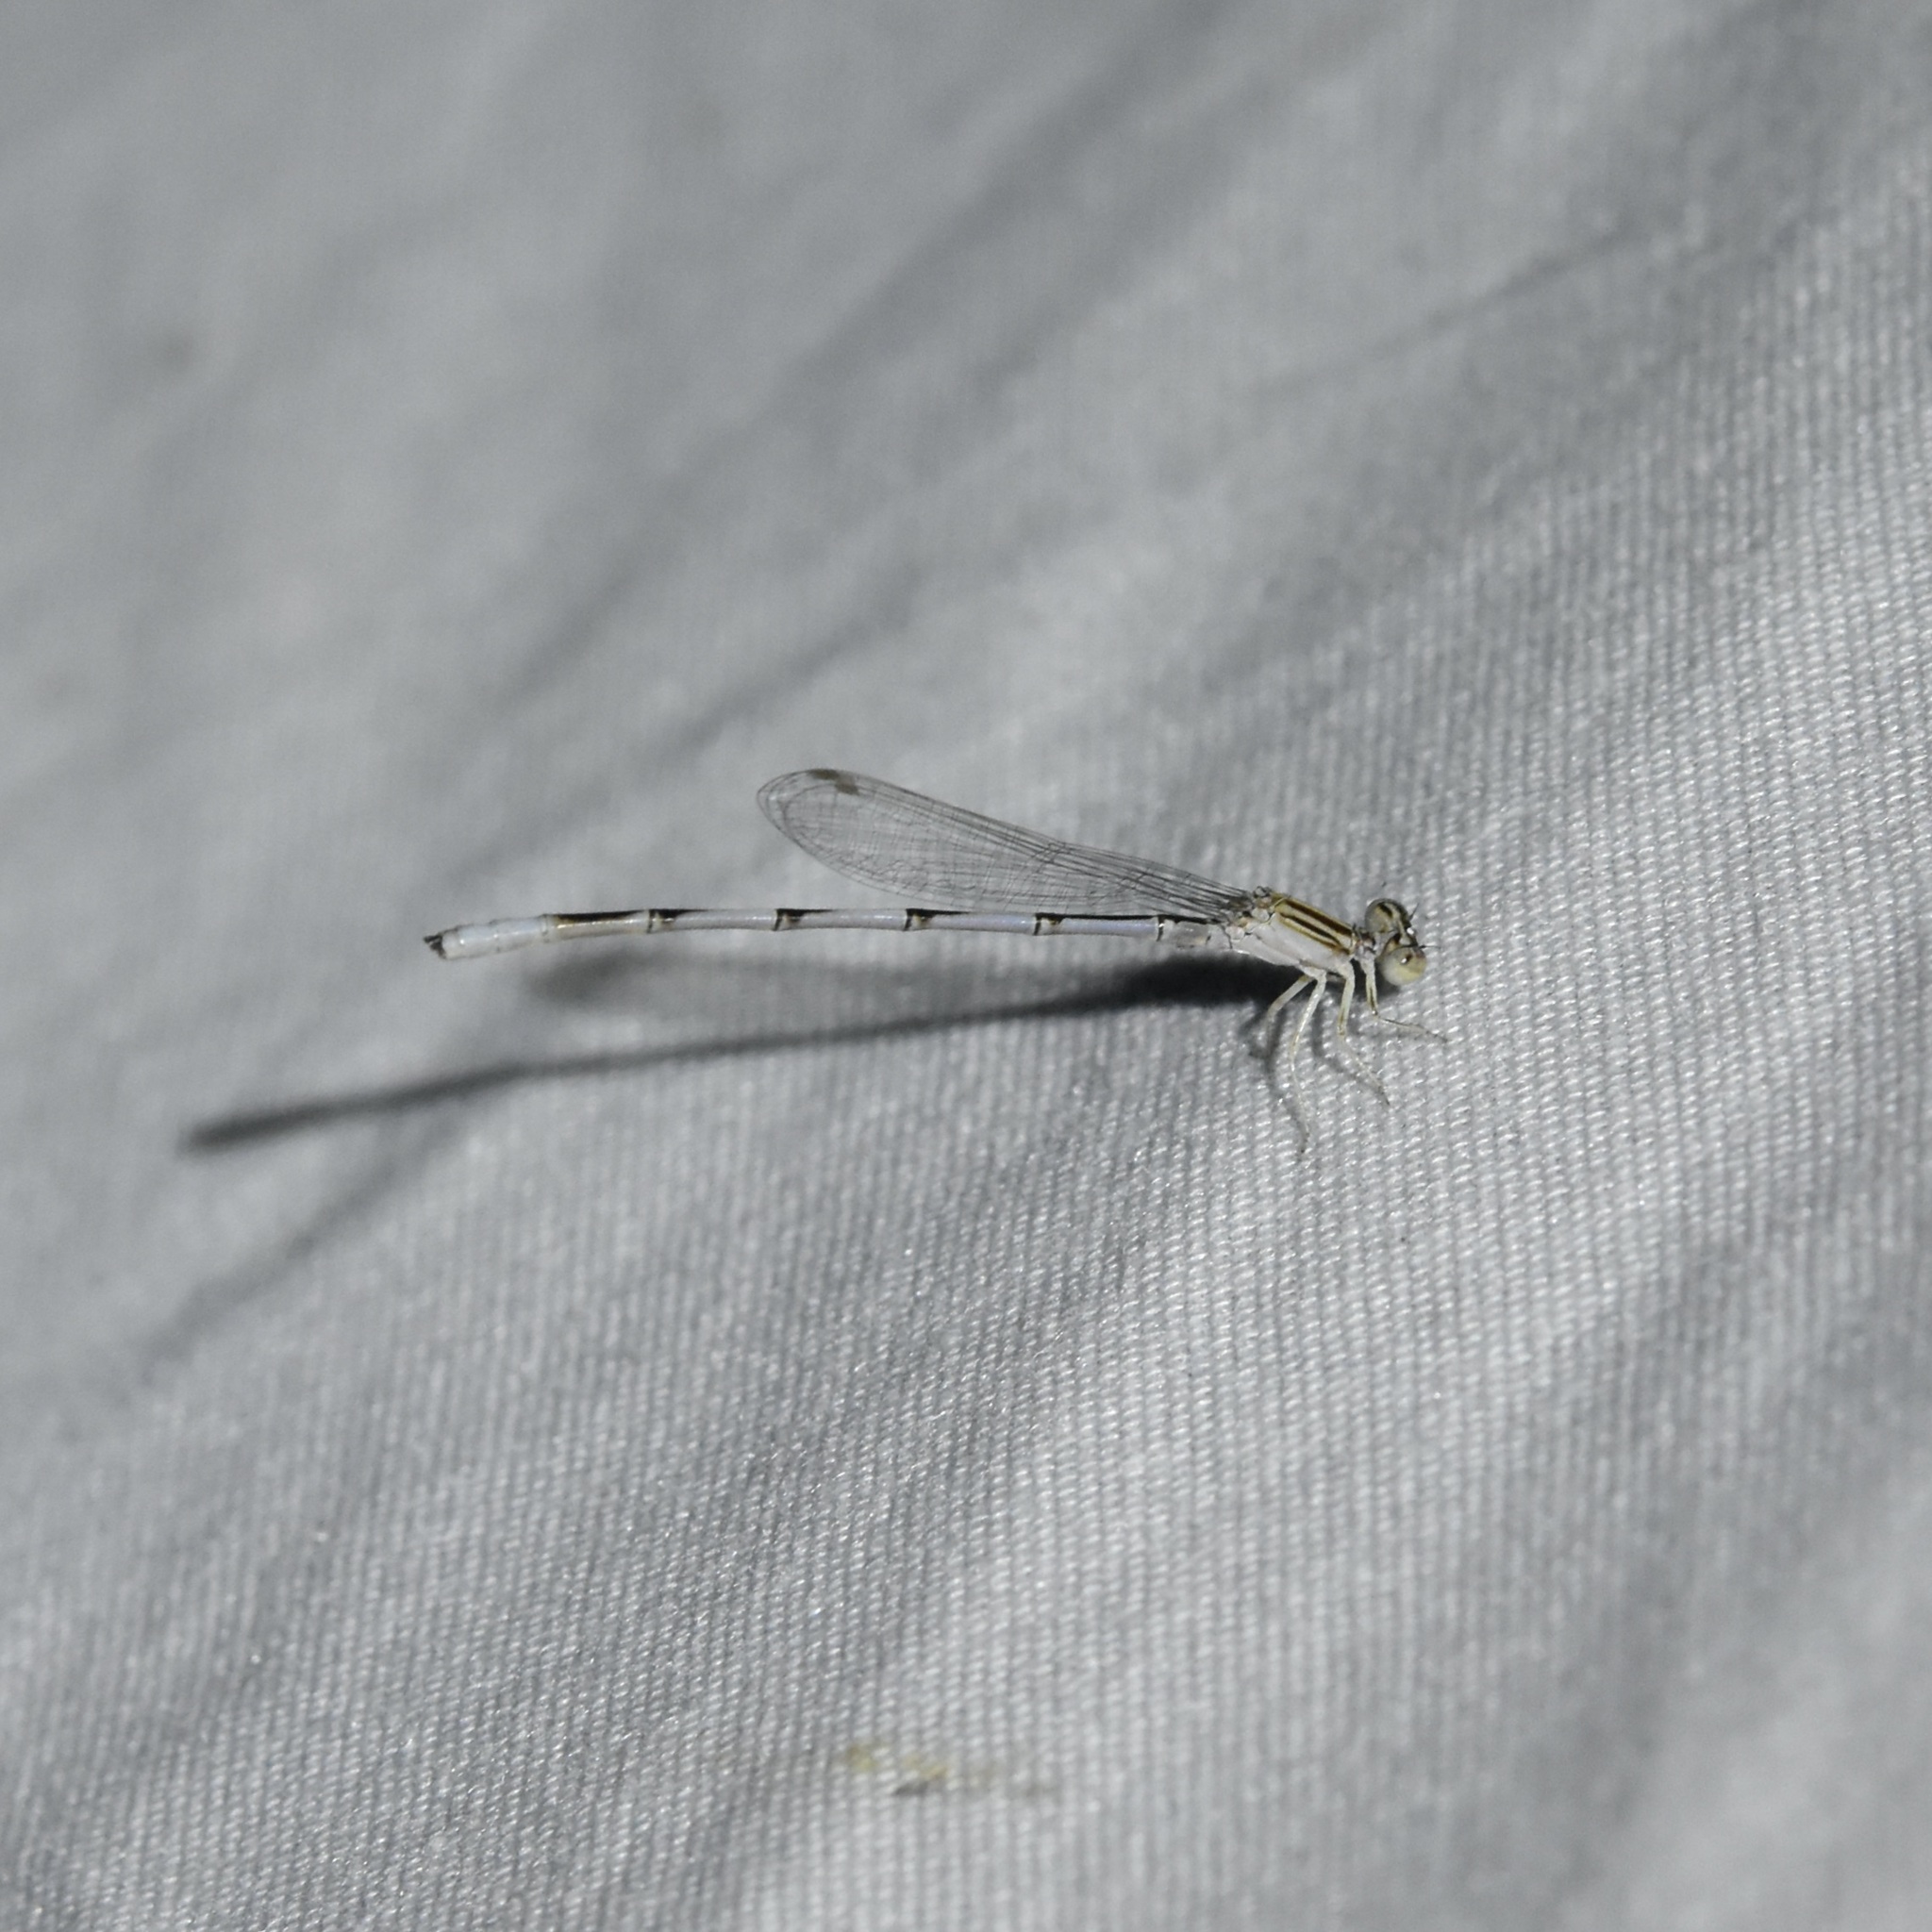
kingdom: Animalia
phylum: Arthropoda
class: Insecta
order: Odonata
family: Coenagrionidae
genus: Enallagma
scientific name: Enallagma basidens
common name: Double-striped bluet
